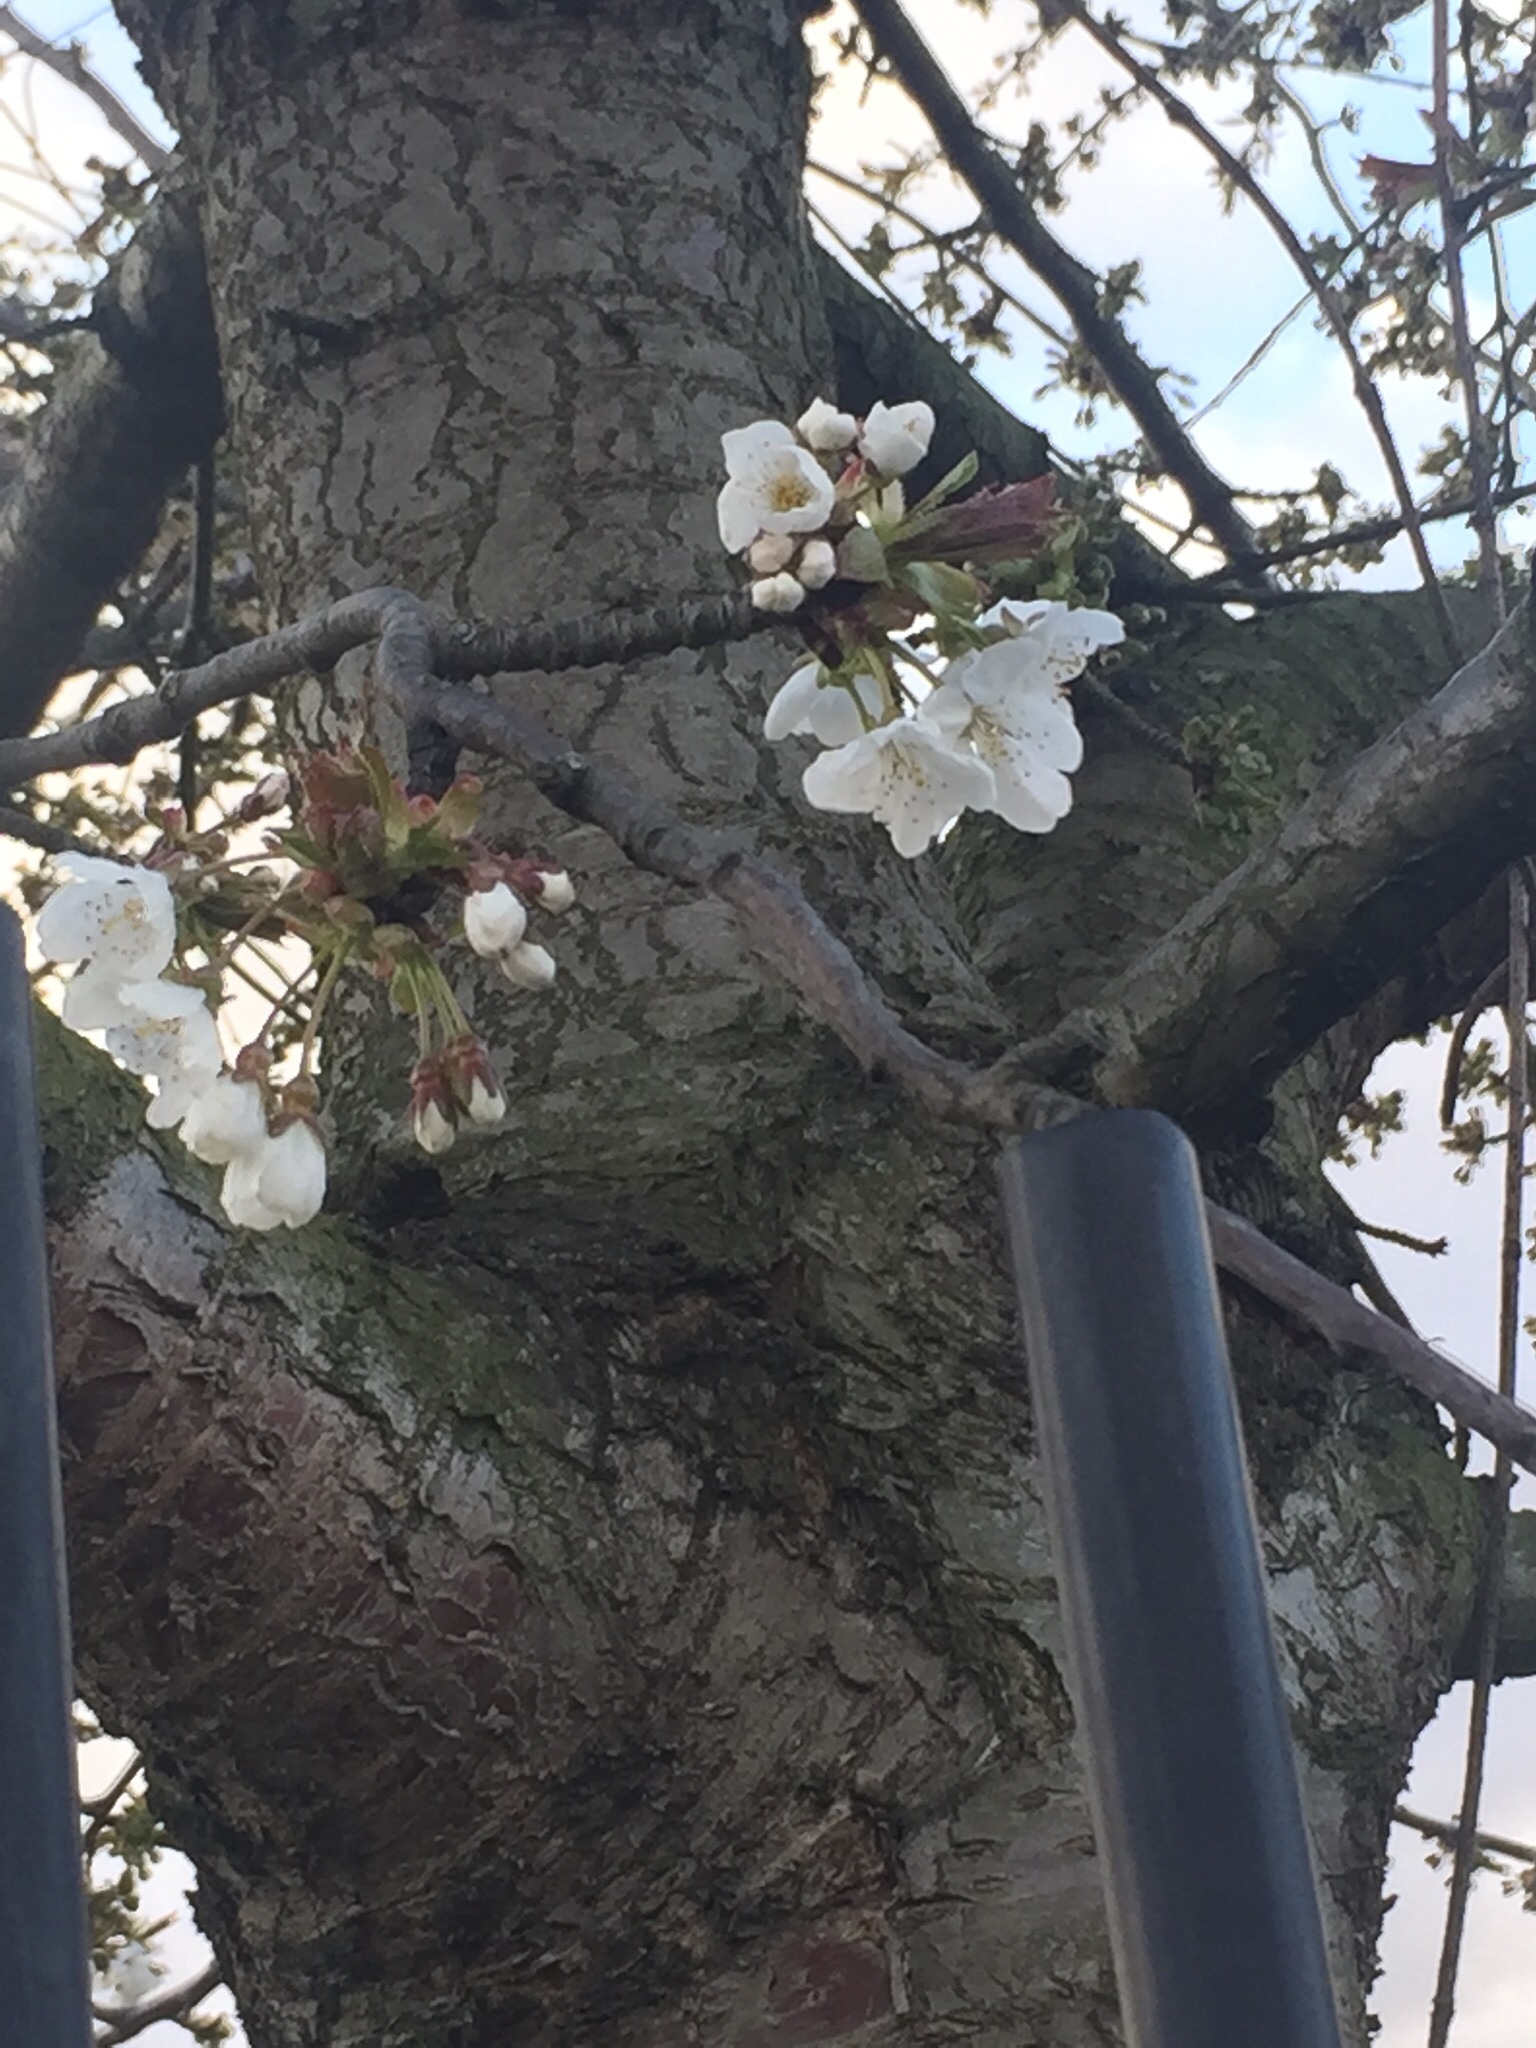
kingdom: Plantae
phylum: Tracheophyta
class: Magnoliopsida
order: Rosales
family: Rosaceae
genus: Prunus
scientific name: Prunus avium
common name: Sweet cherry
